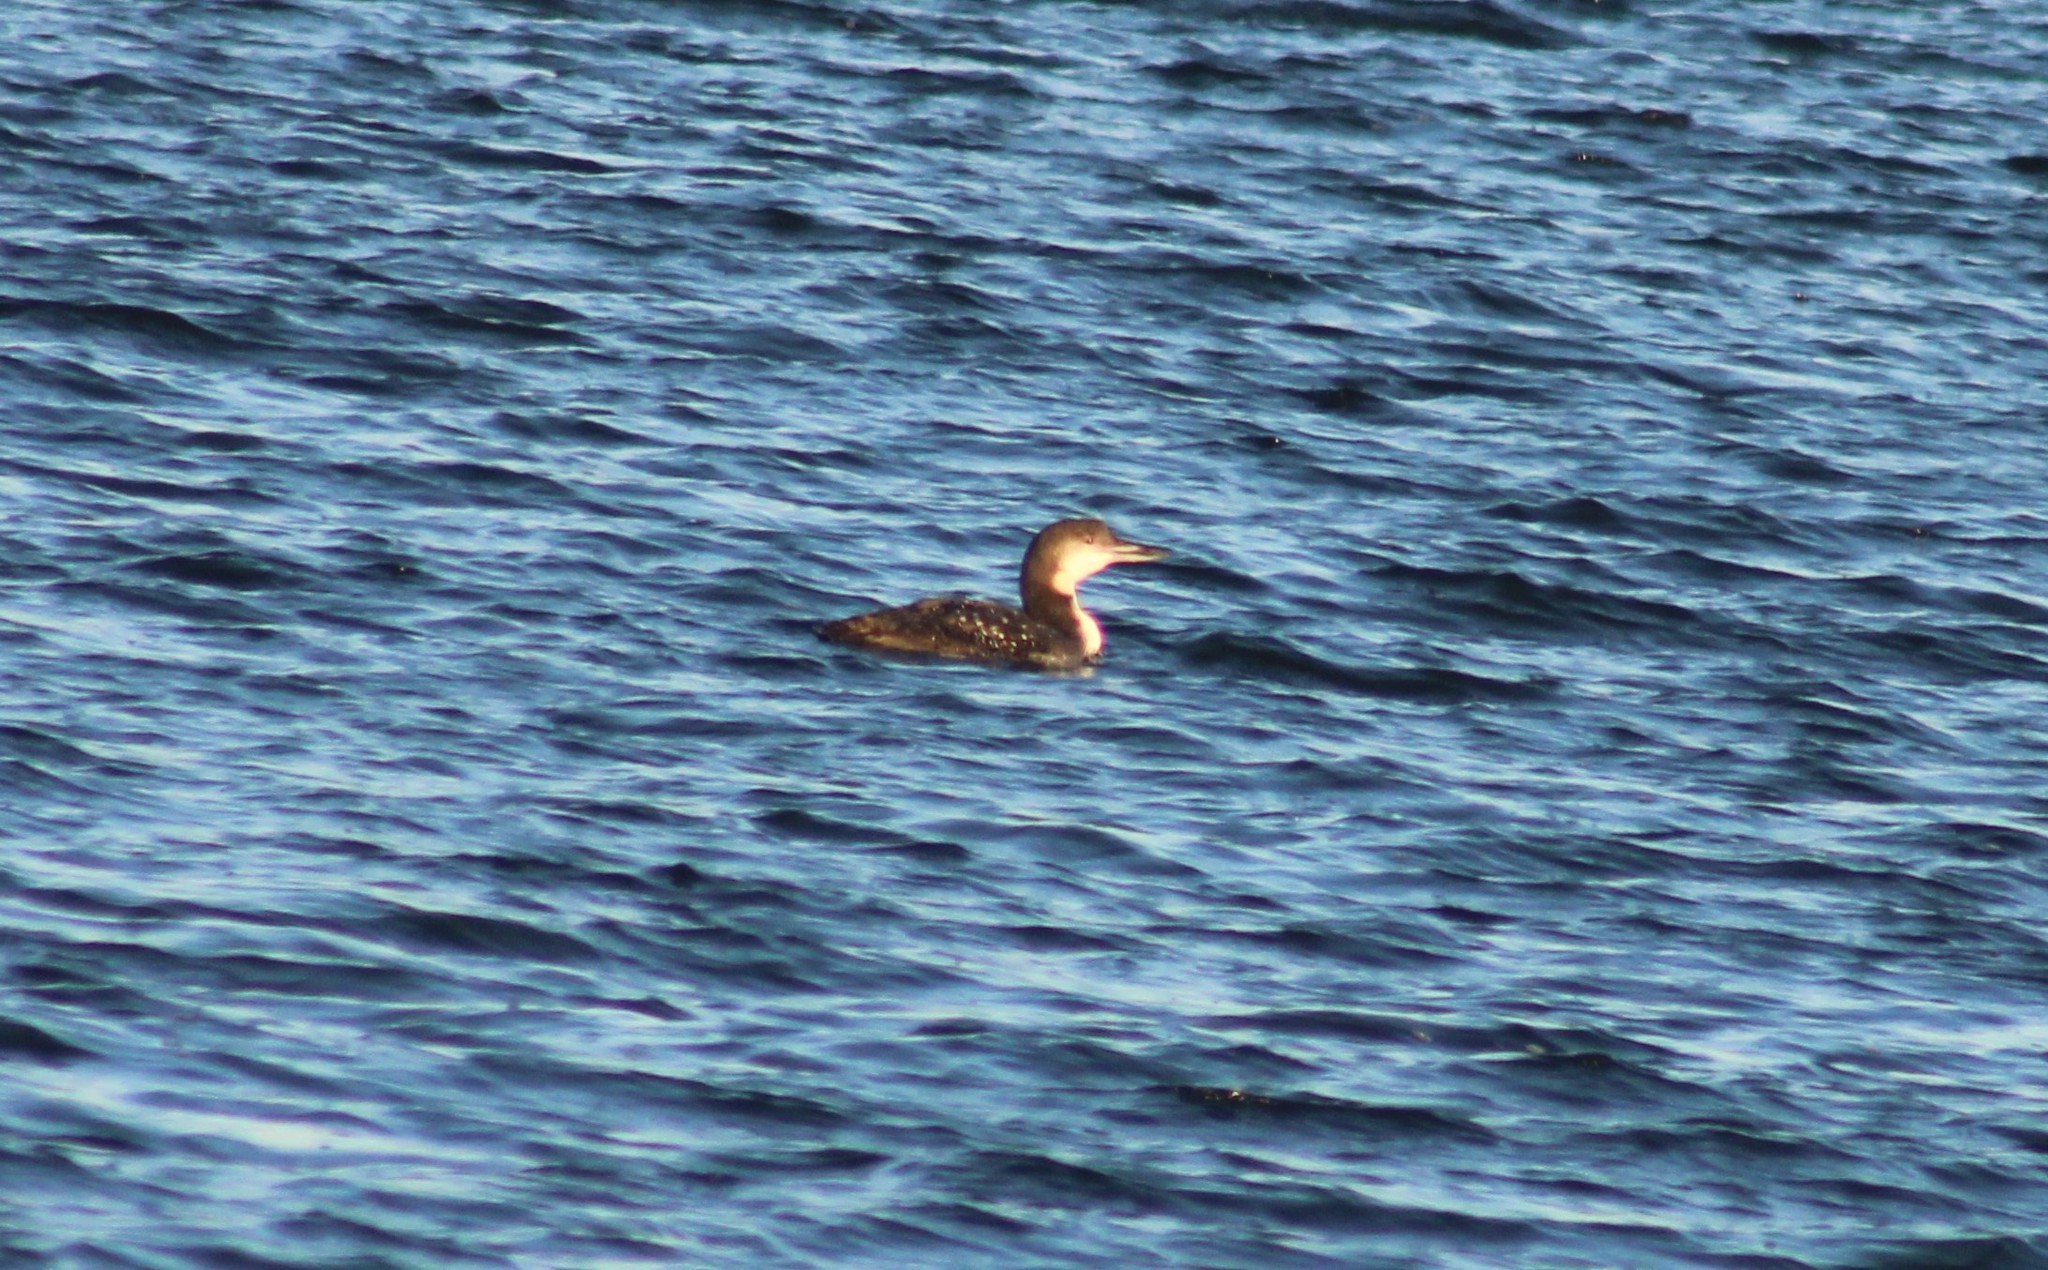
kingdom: Animalia
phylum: Chordata
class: Aves
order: Gaviiformes
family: Gaviidae
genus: Gavia
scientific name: Gavia immer
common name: Common loon
